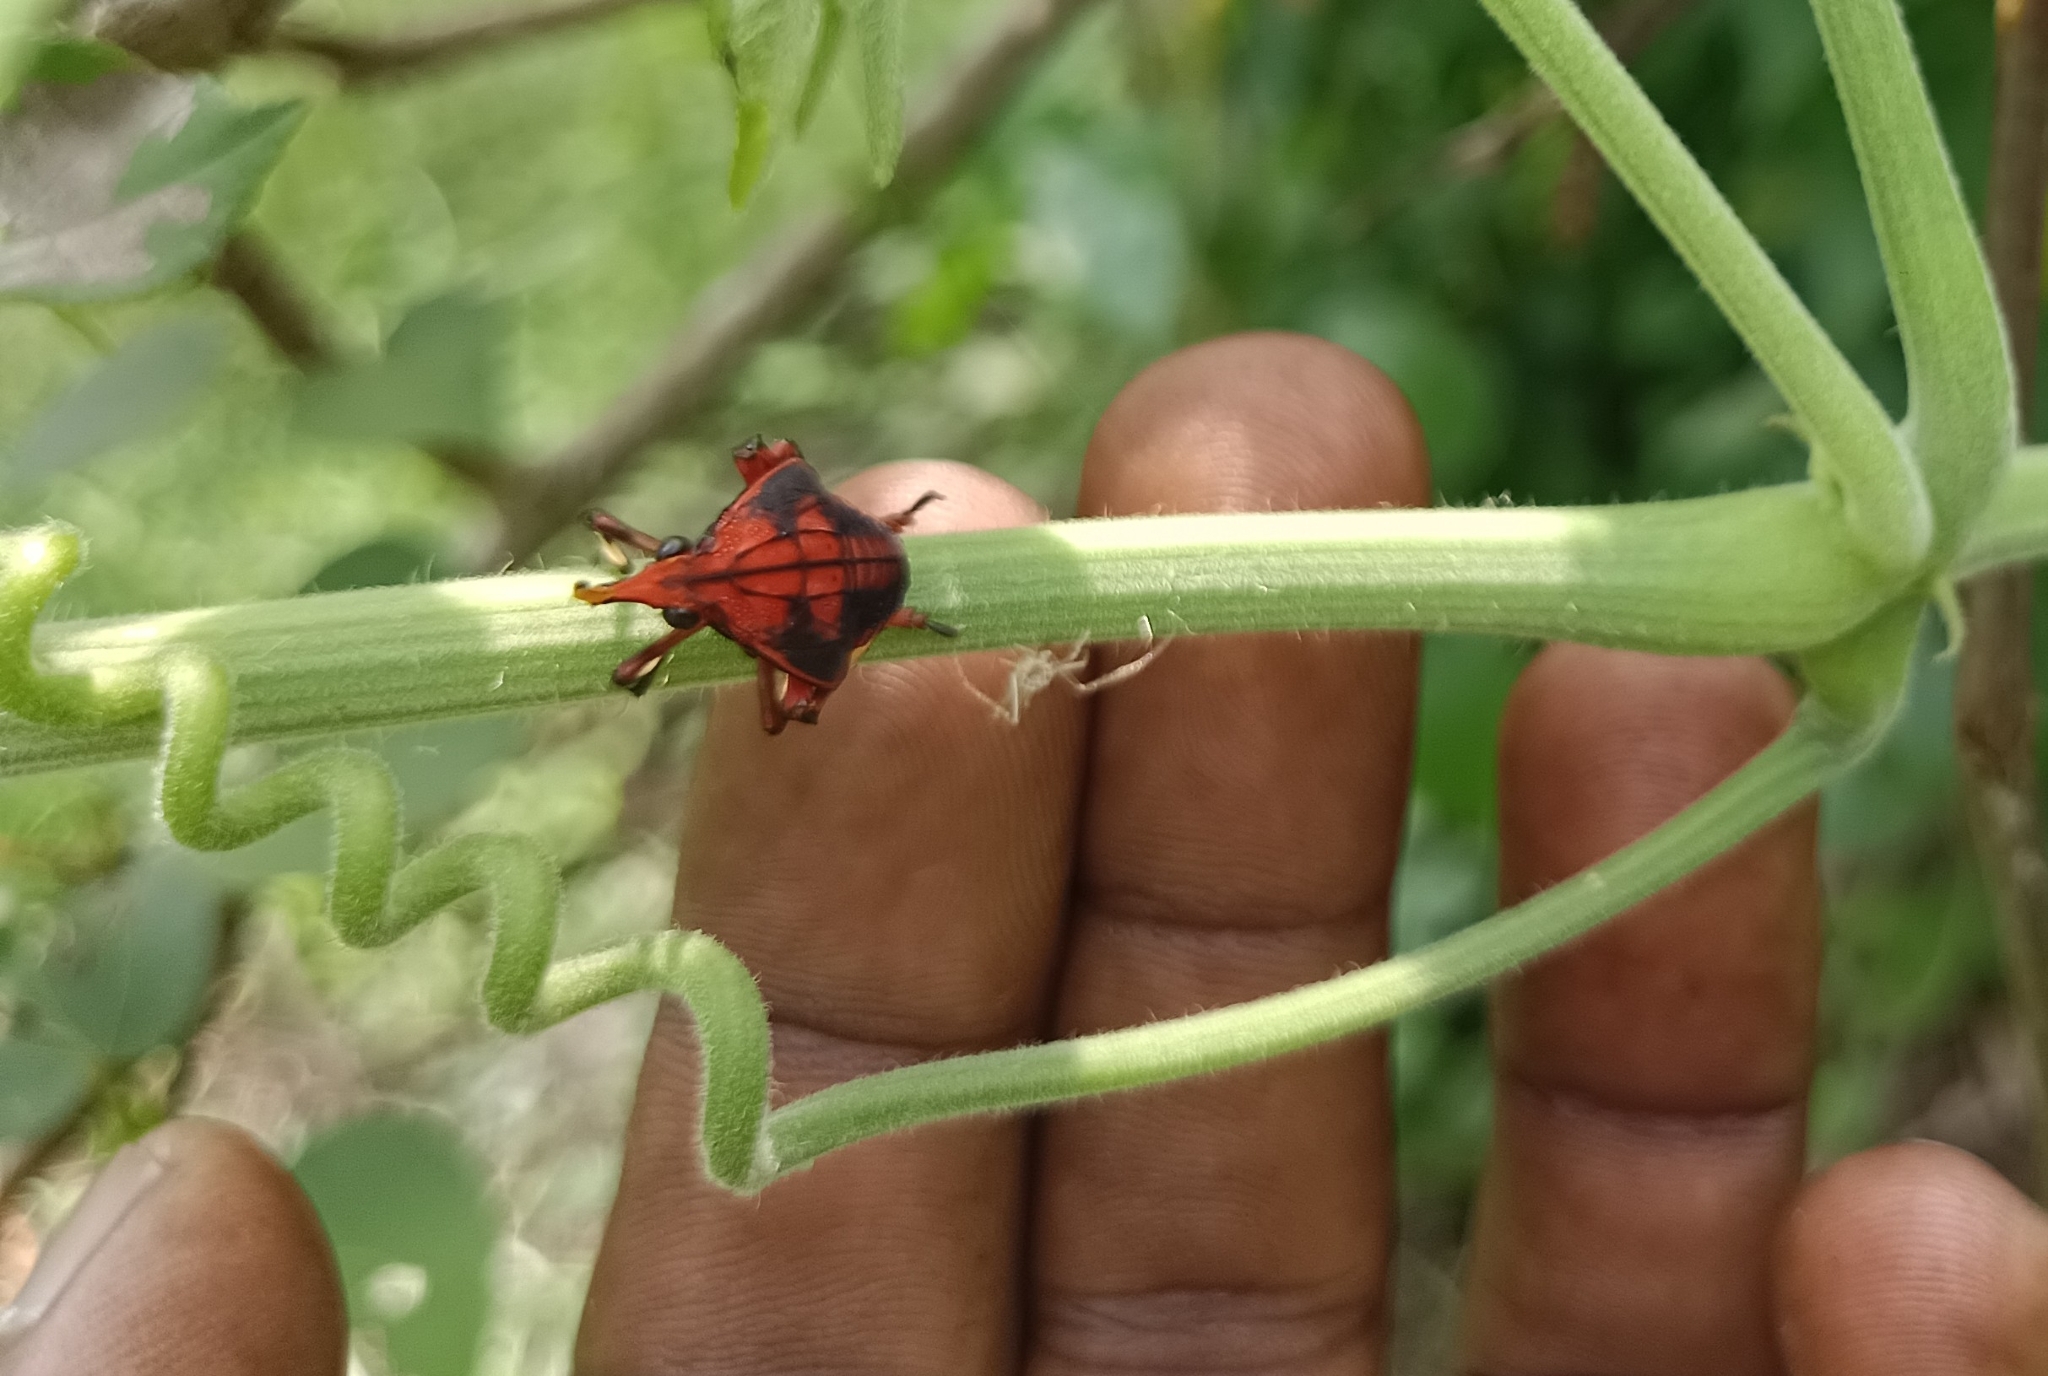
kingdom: Animalia
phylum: Arthropoda
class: Insecta
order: Hemiptera
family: Fulgoridae
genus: Kalidasa
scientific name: Kalidasa lanata
